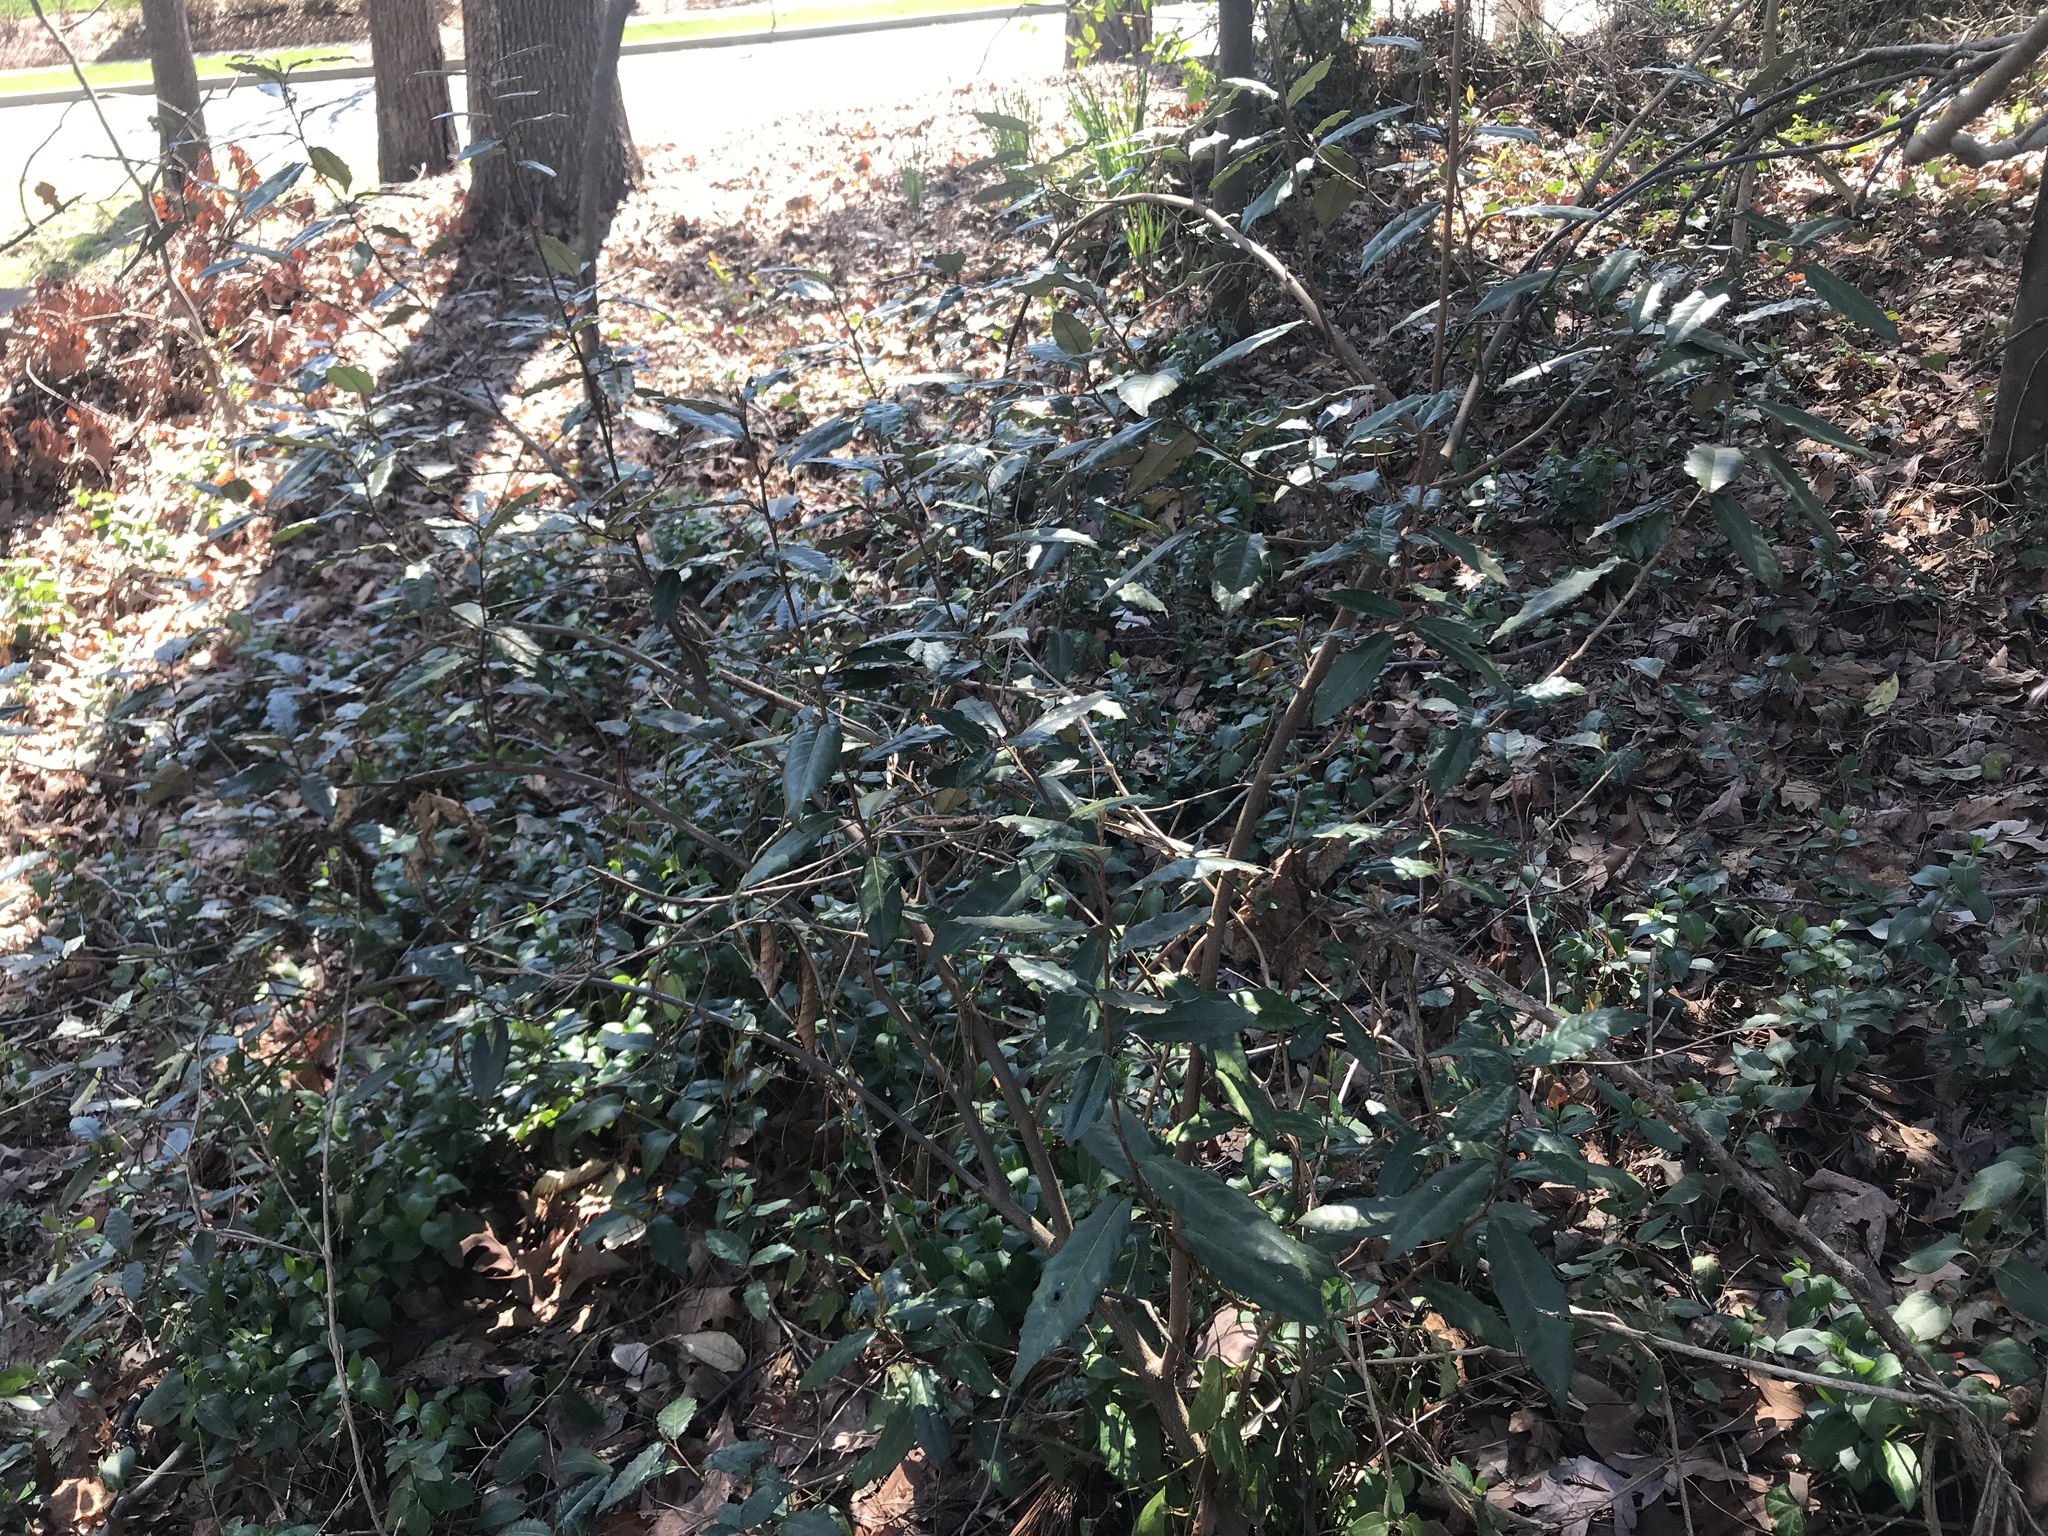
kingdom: Plantae
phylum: Tracheophyta
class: Magnoliopsida
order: Rosales
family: Elaeagnaceae
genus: Elaeagnus
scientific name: Elaeagnus pungens
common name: Spiny oleaster
